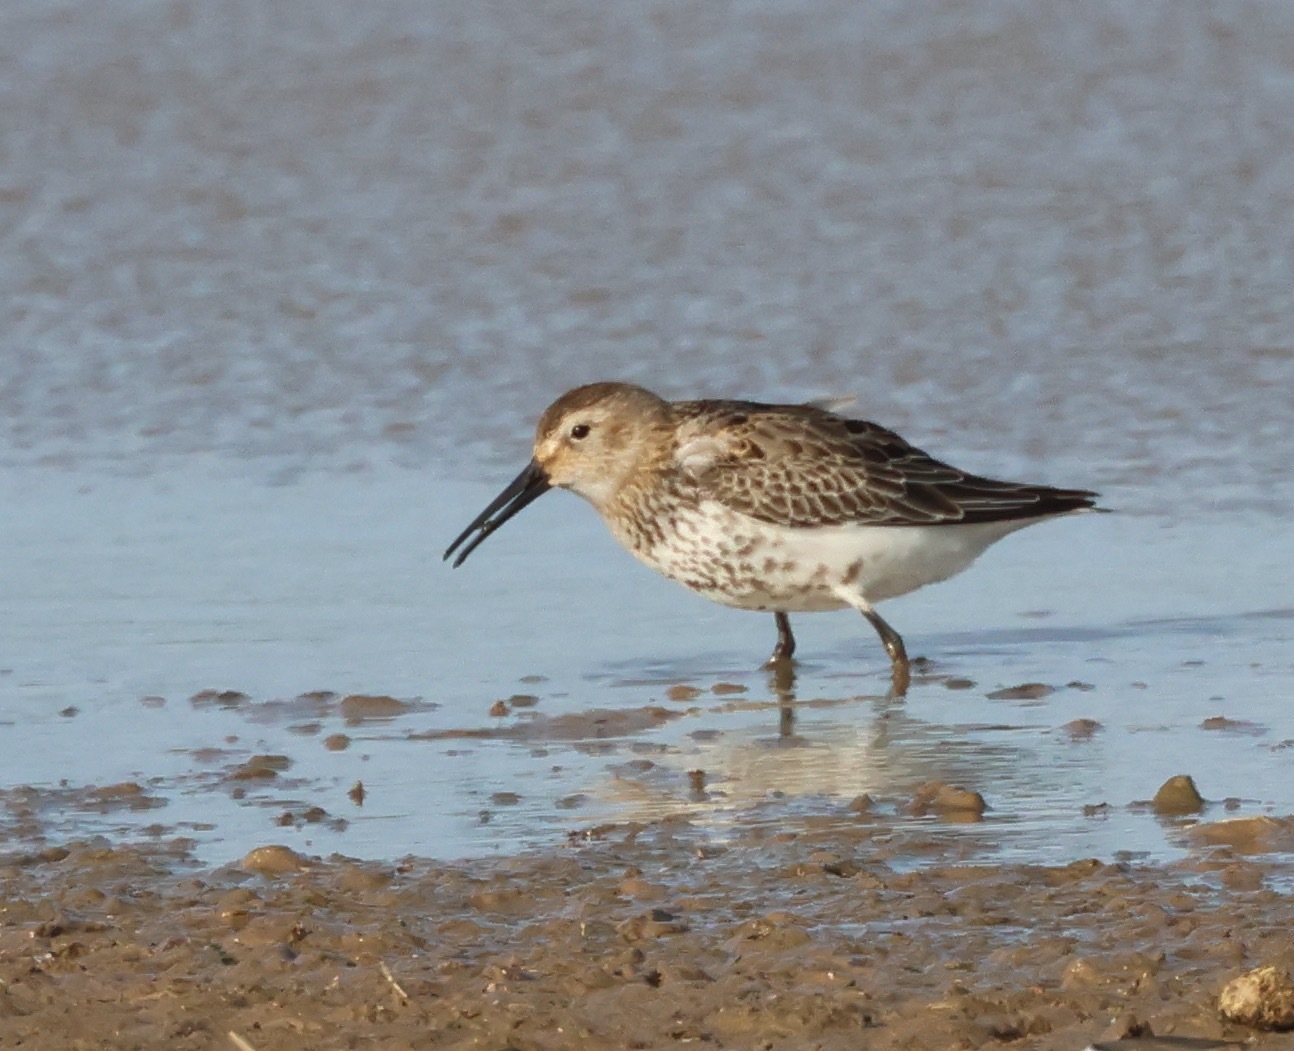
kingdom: Animalia
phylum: Chordata
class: Aves
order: Charadriiformes
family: Scolopacidae
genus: Calidris
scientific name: Calidris alpina
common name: Dunlin
